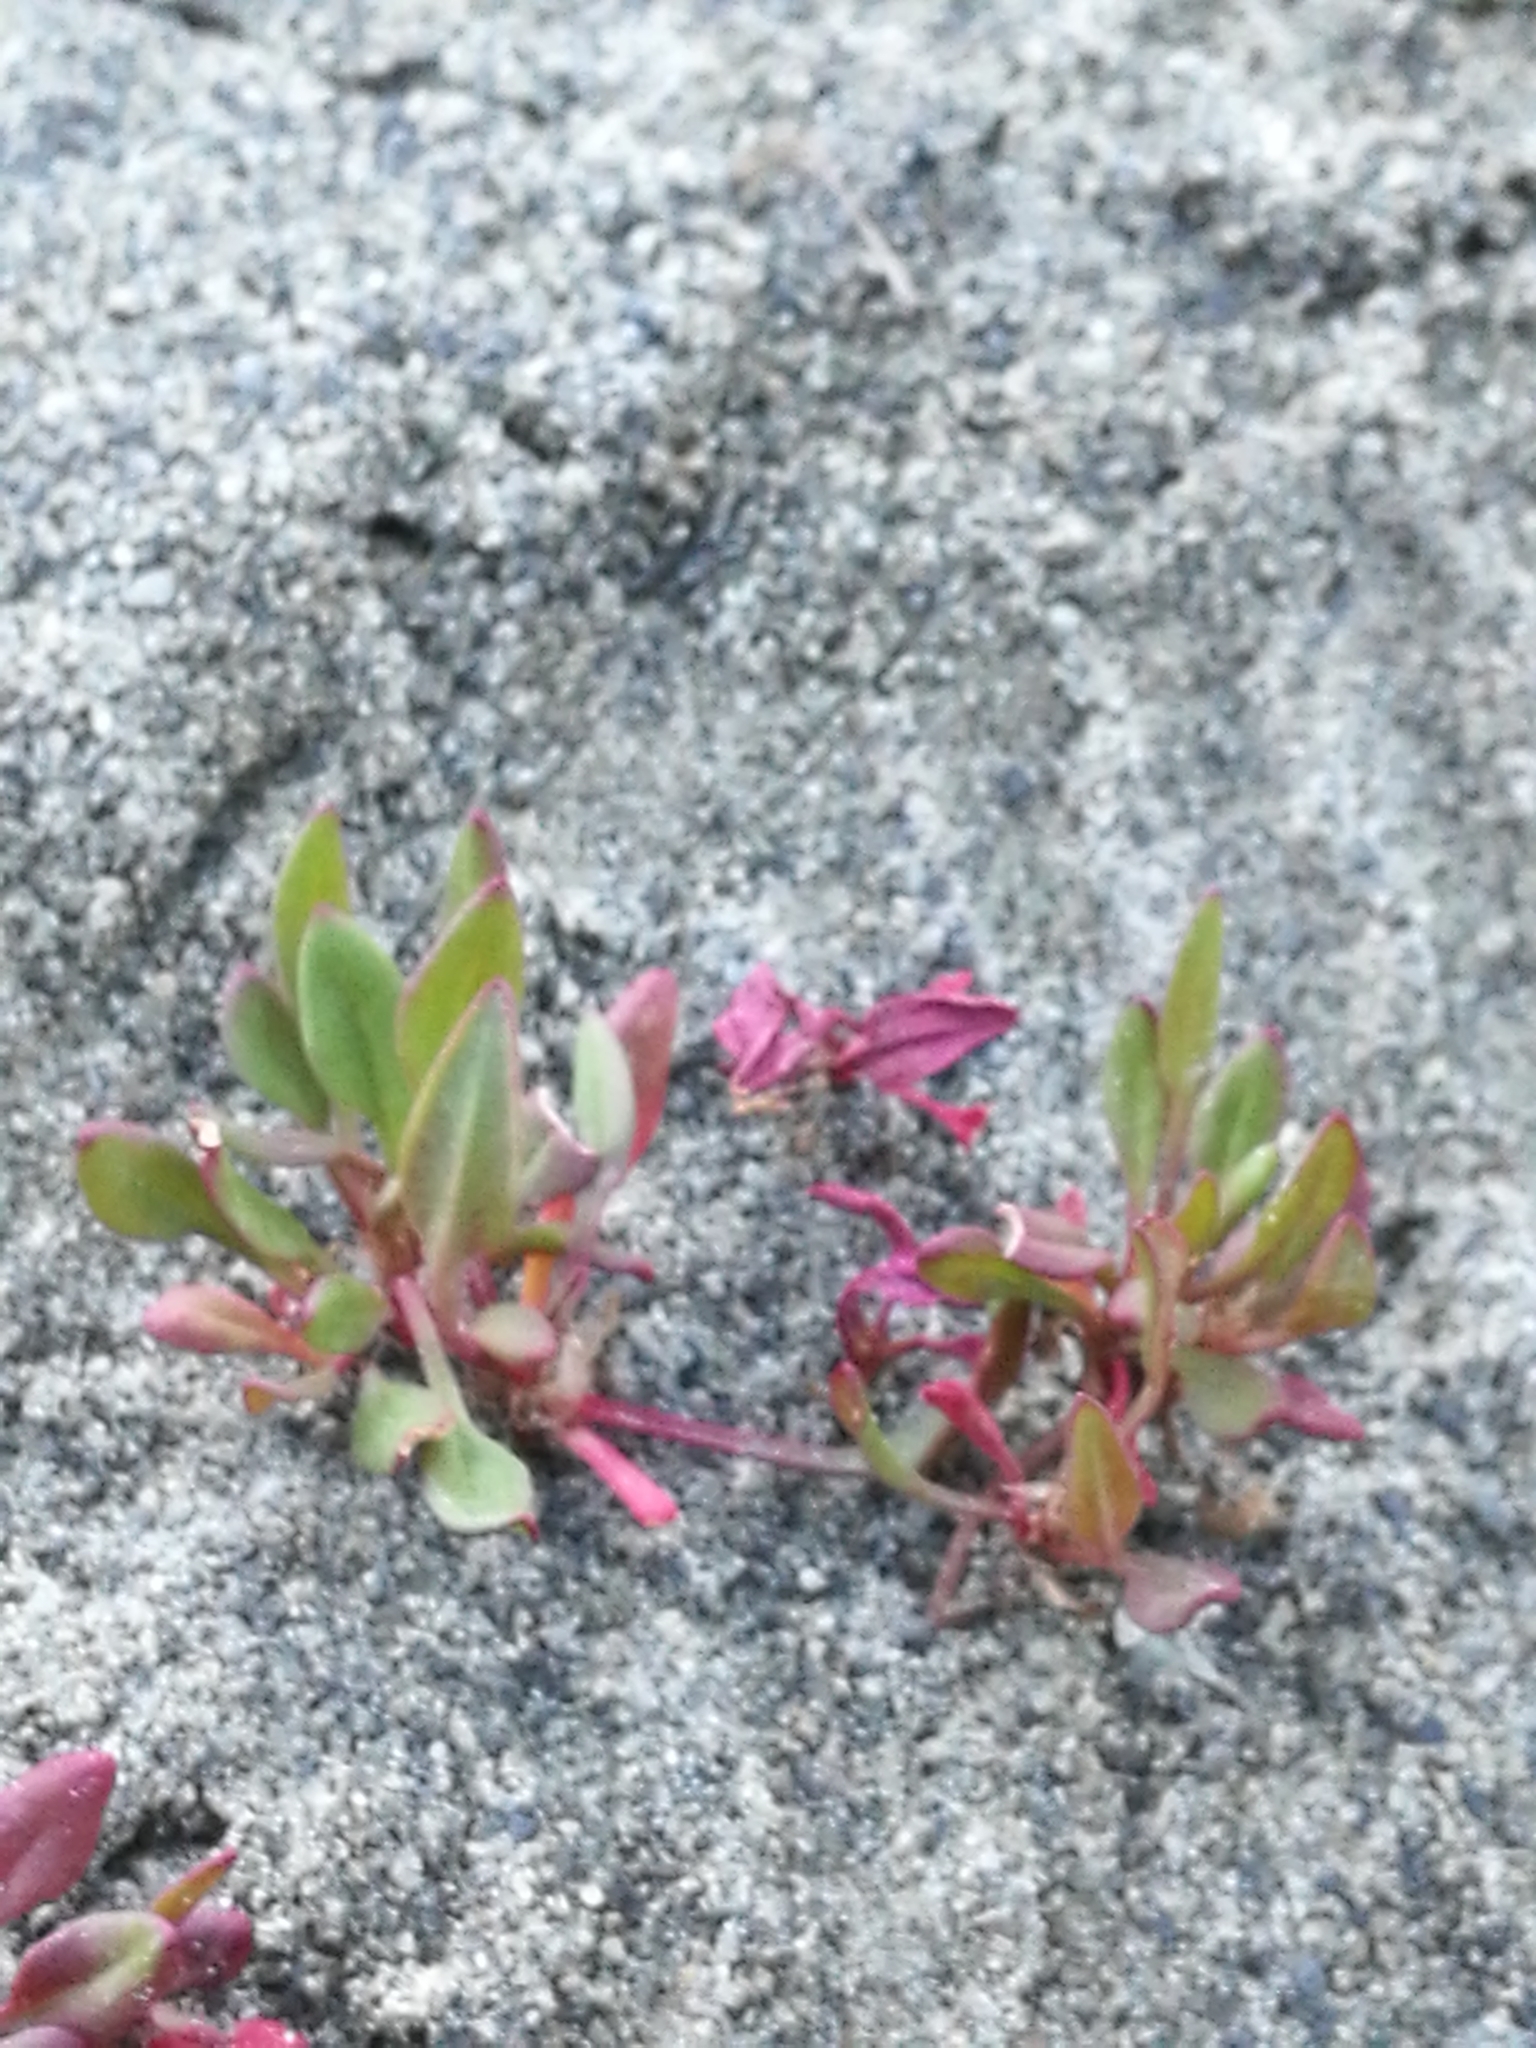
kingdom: Plantae
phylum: Tracheophyta
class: Magnoliopsida
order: Caryophyllales
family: Polygonaceae
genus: Rumex
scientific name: Rumex acetosella
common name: Common sheep sorrel
